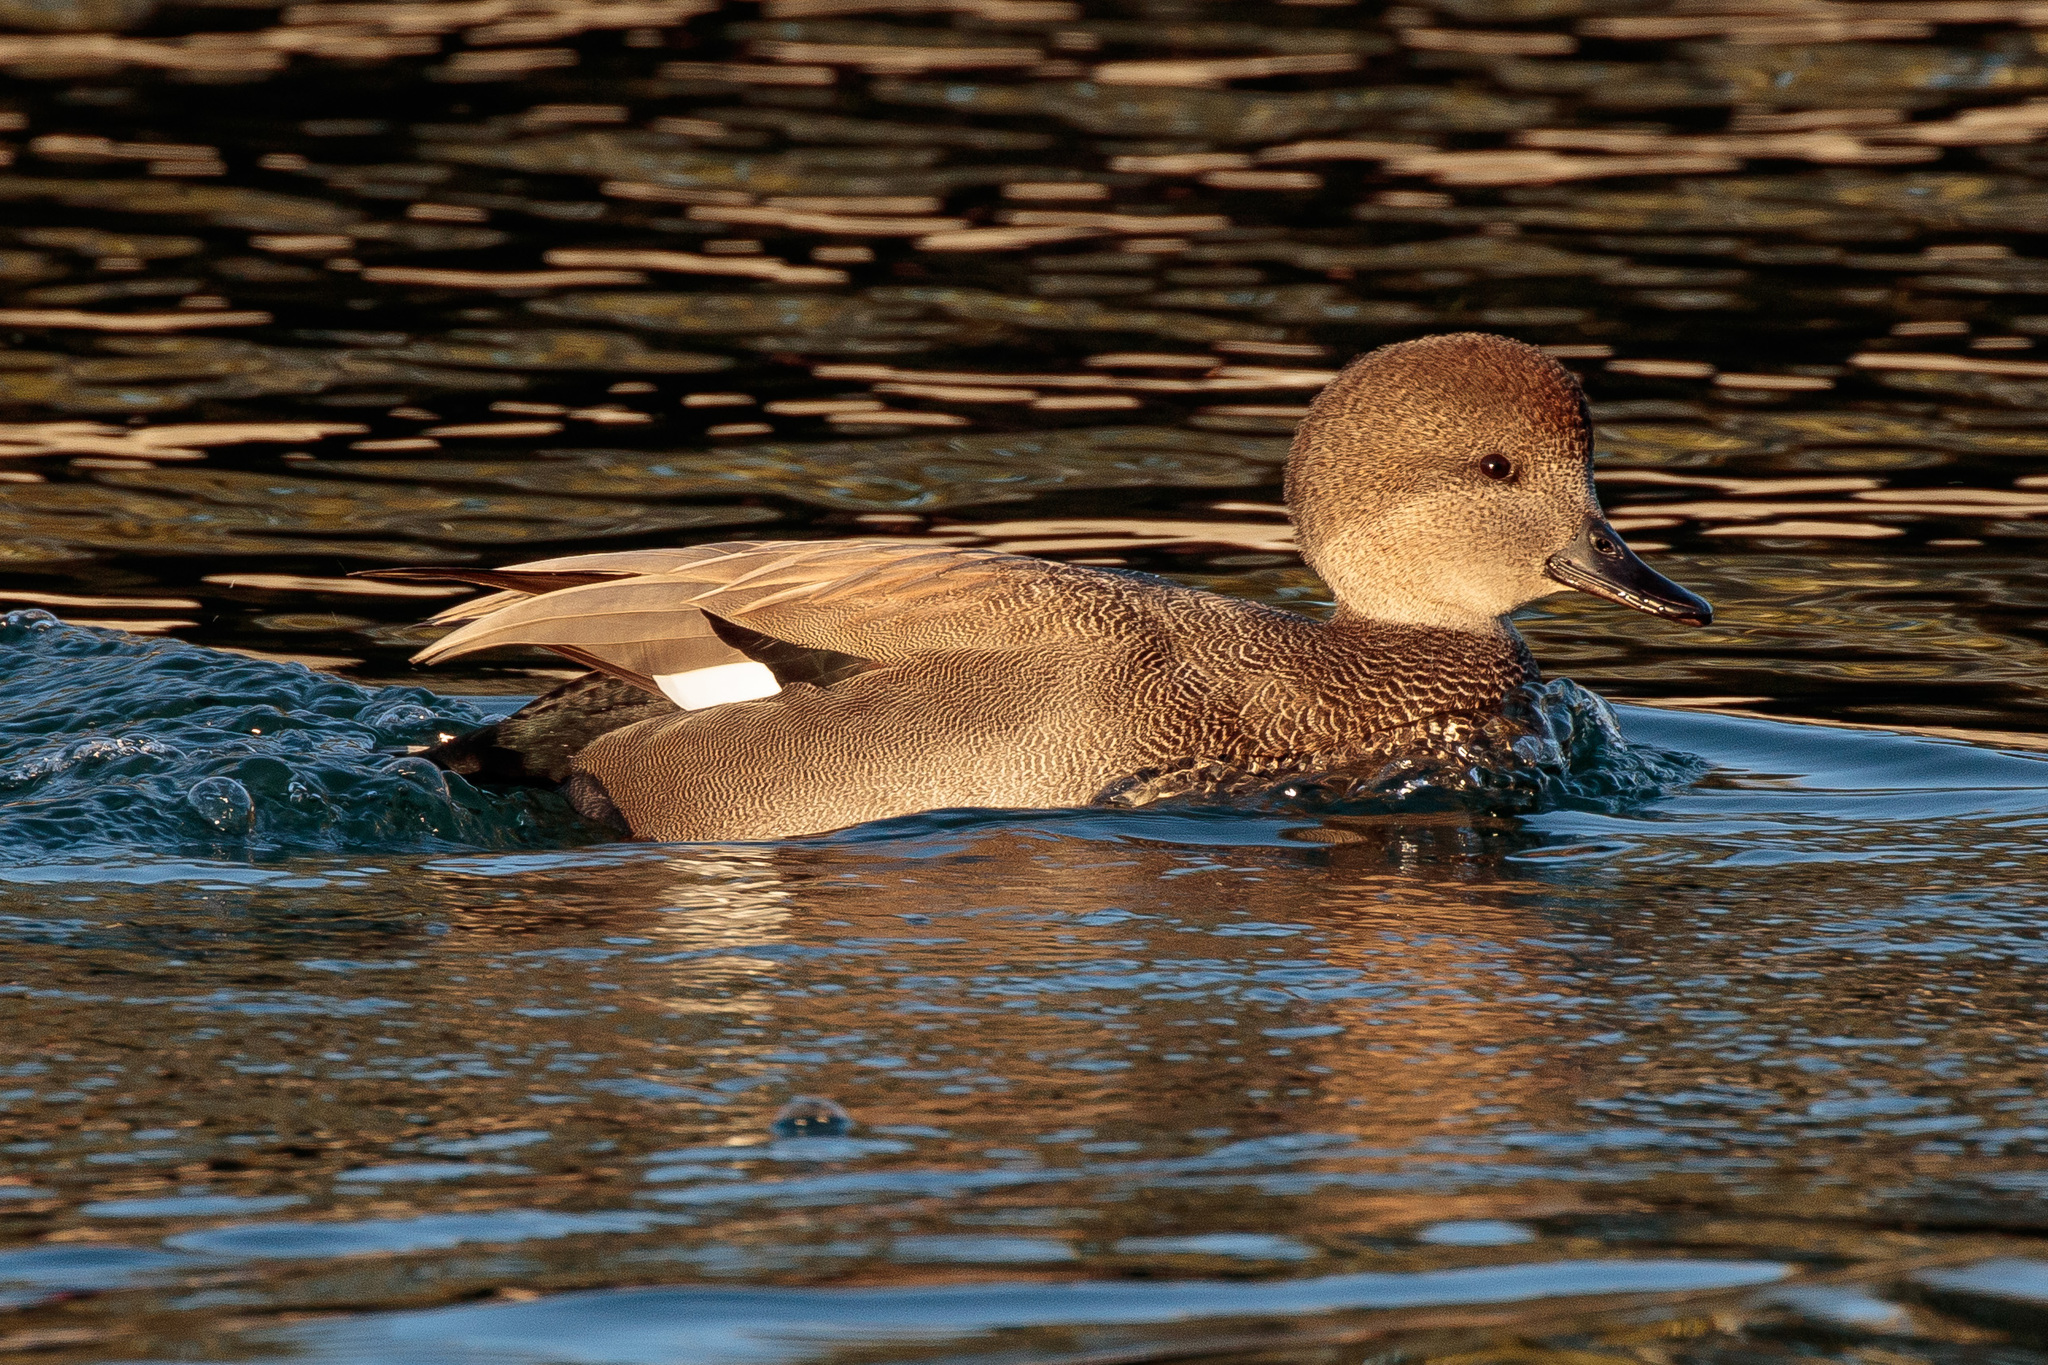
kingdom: Animalia
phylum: Chordata
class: Aves
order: Anseriformes
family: Anatidae
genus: Mareca
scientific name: Mareca strepera
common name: Gadwall
